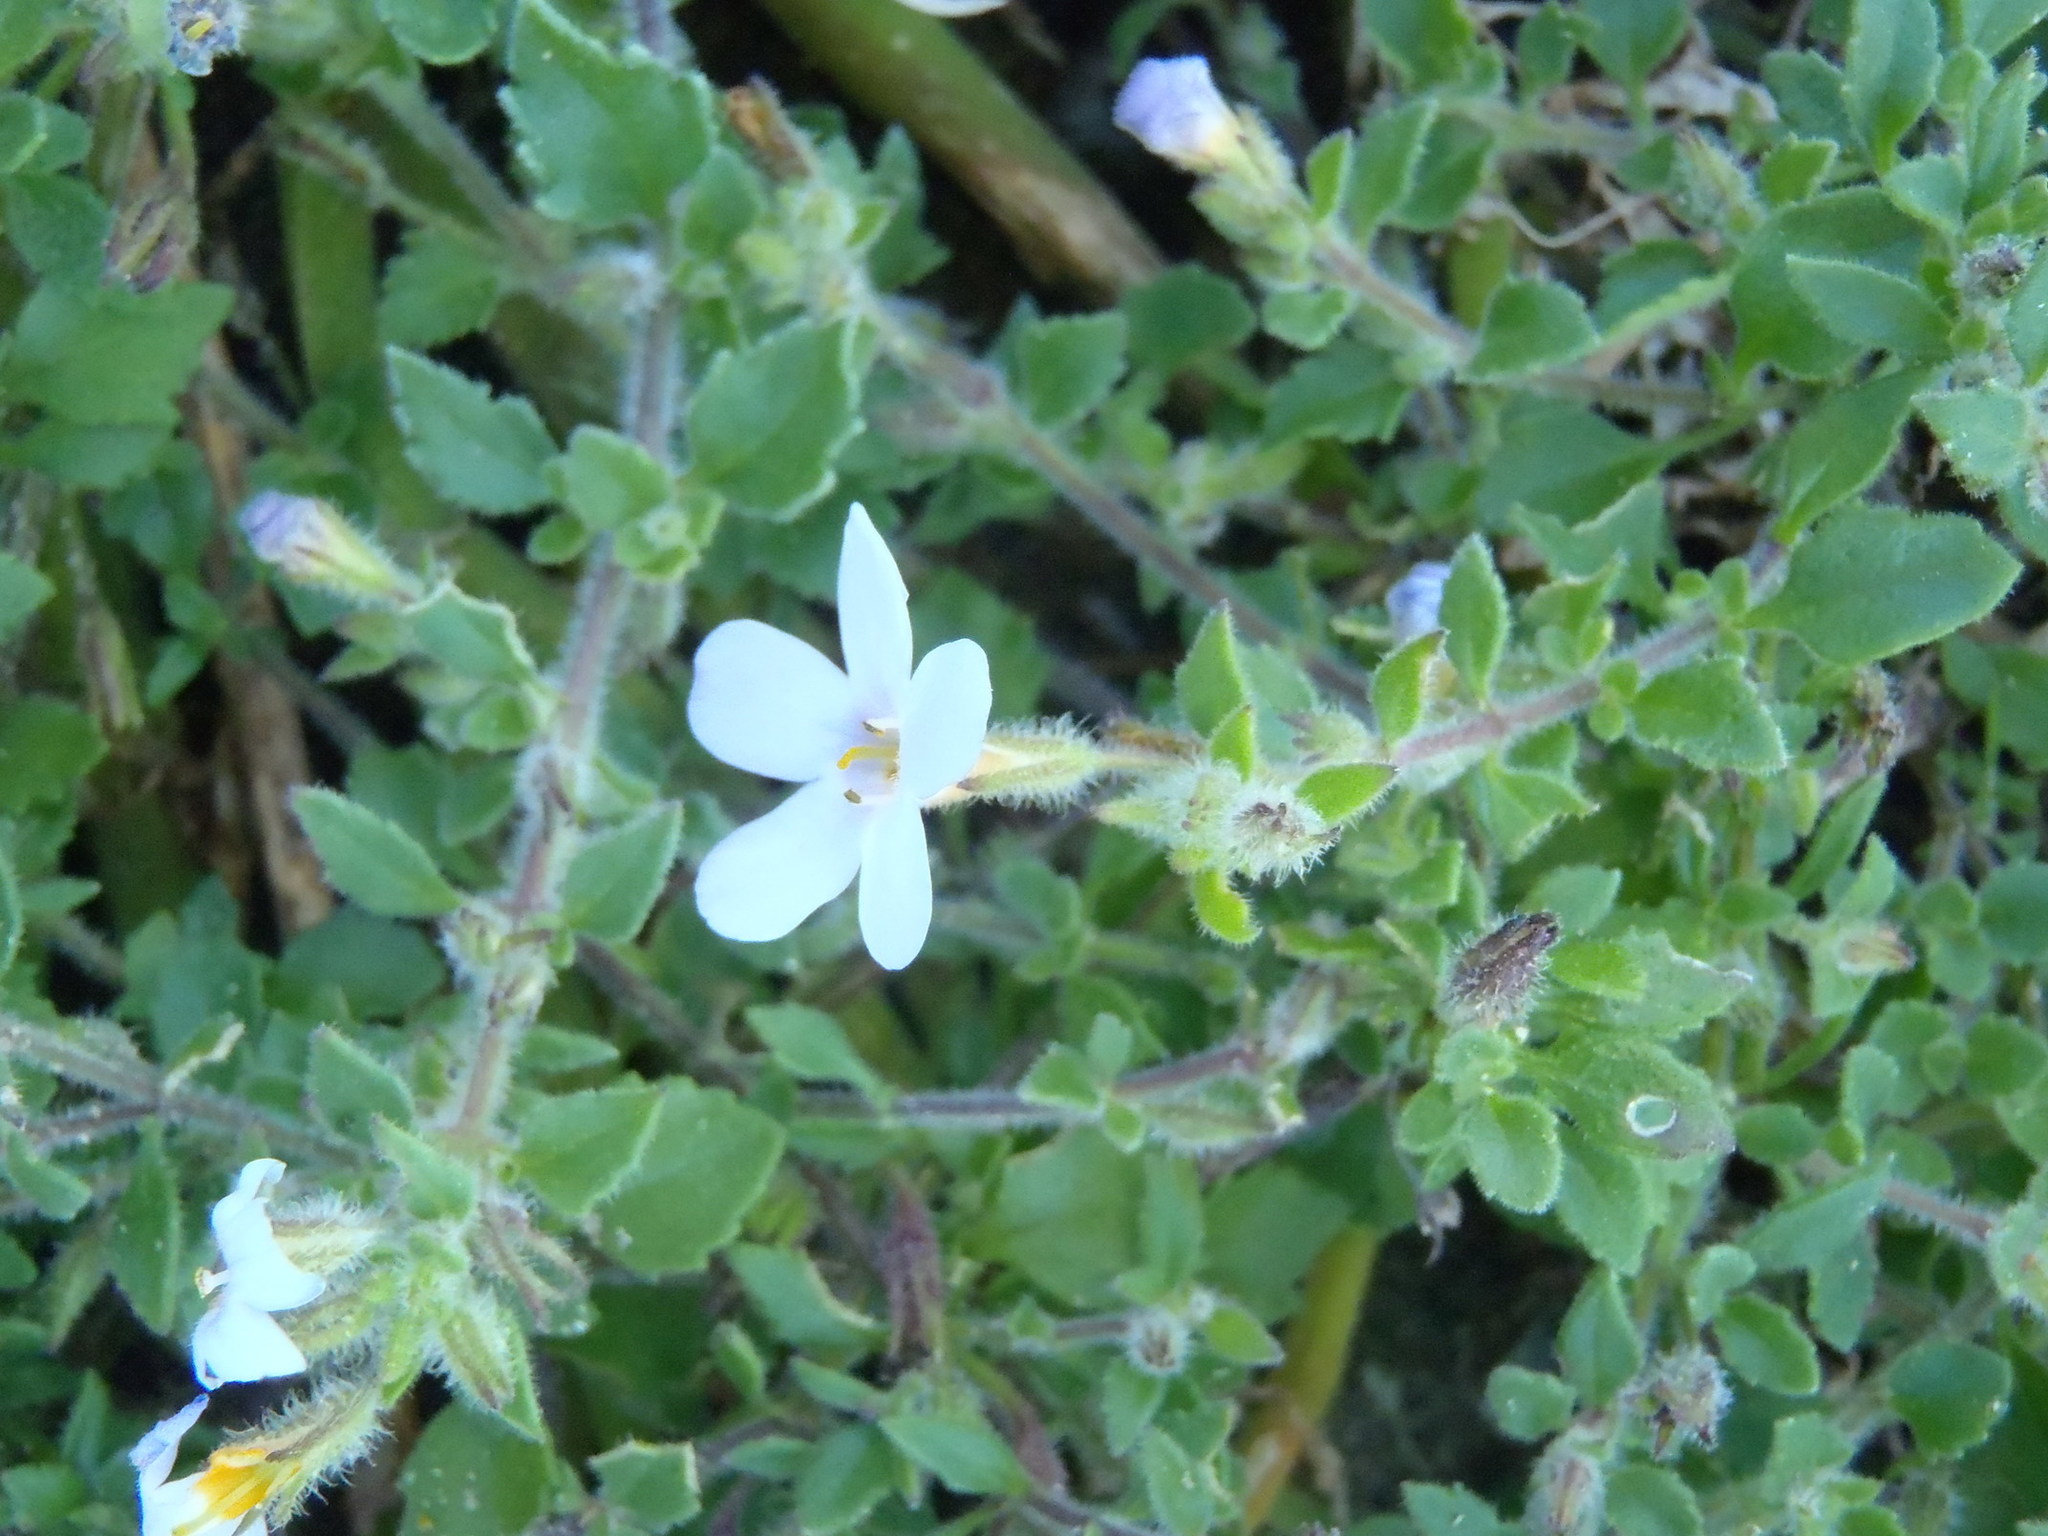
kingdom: Plantae
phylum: Tracheophyta
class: Magnoliopsida
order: Lamiales
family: Scrophulariaceae
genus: Chaenostoma
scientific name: Chaenostoma campanulatum
